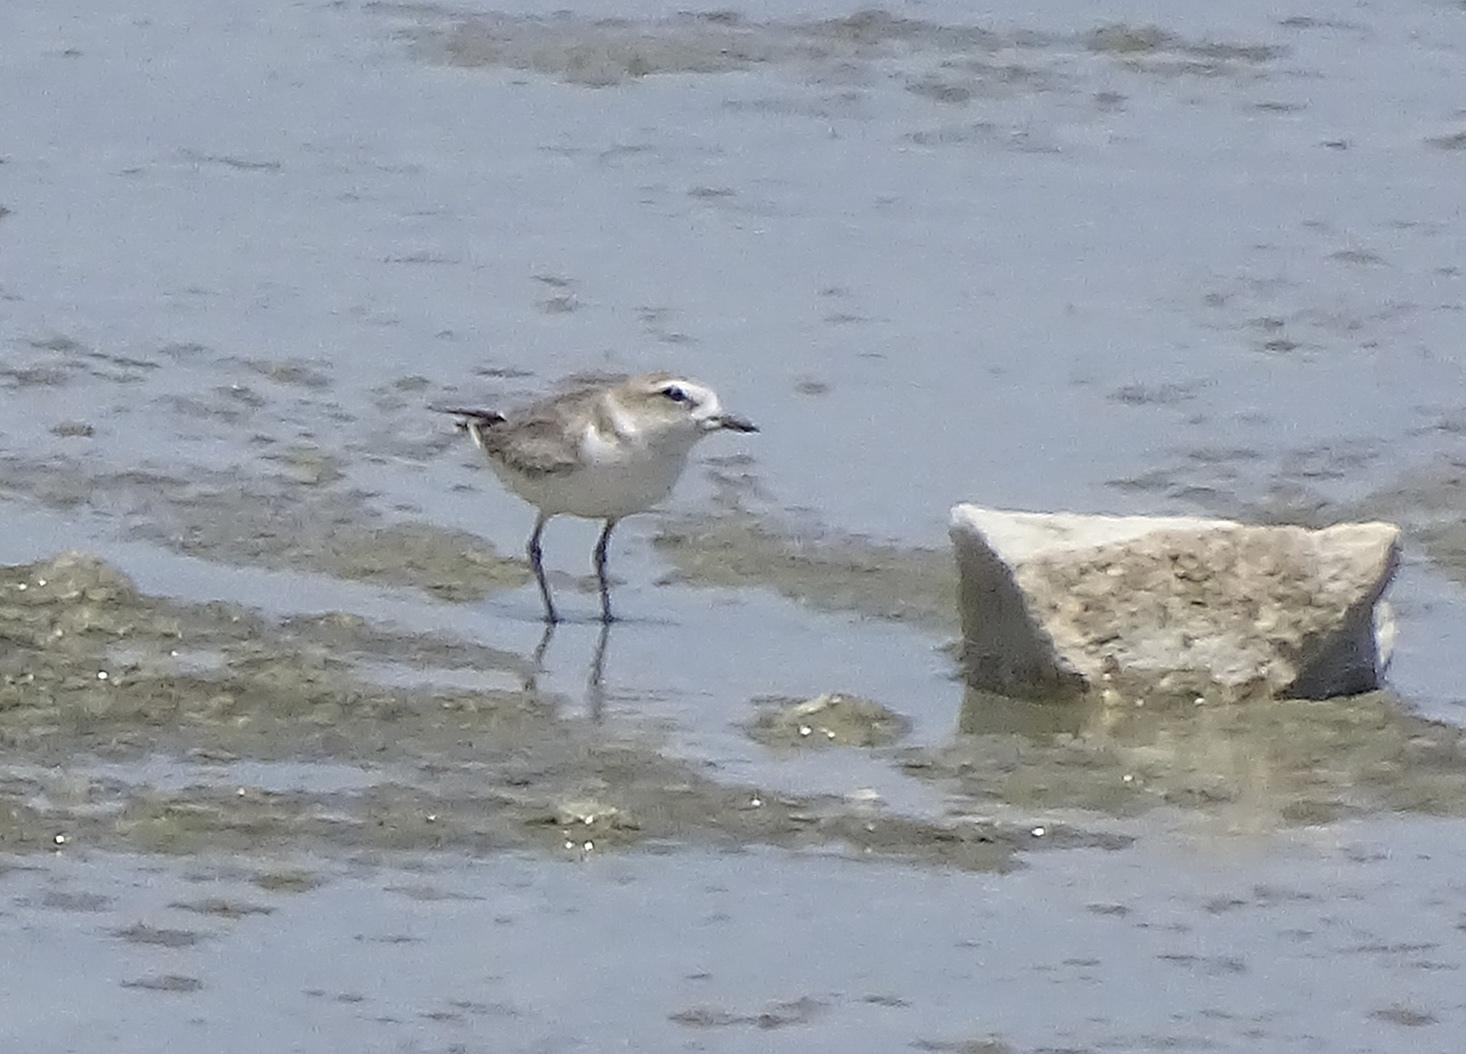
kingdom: Animalia
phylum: Chordata
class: Aves
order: Charadriiformes
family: Charadriidae
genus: Anarhynchus
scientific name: Anarhynchus
